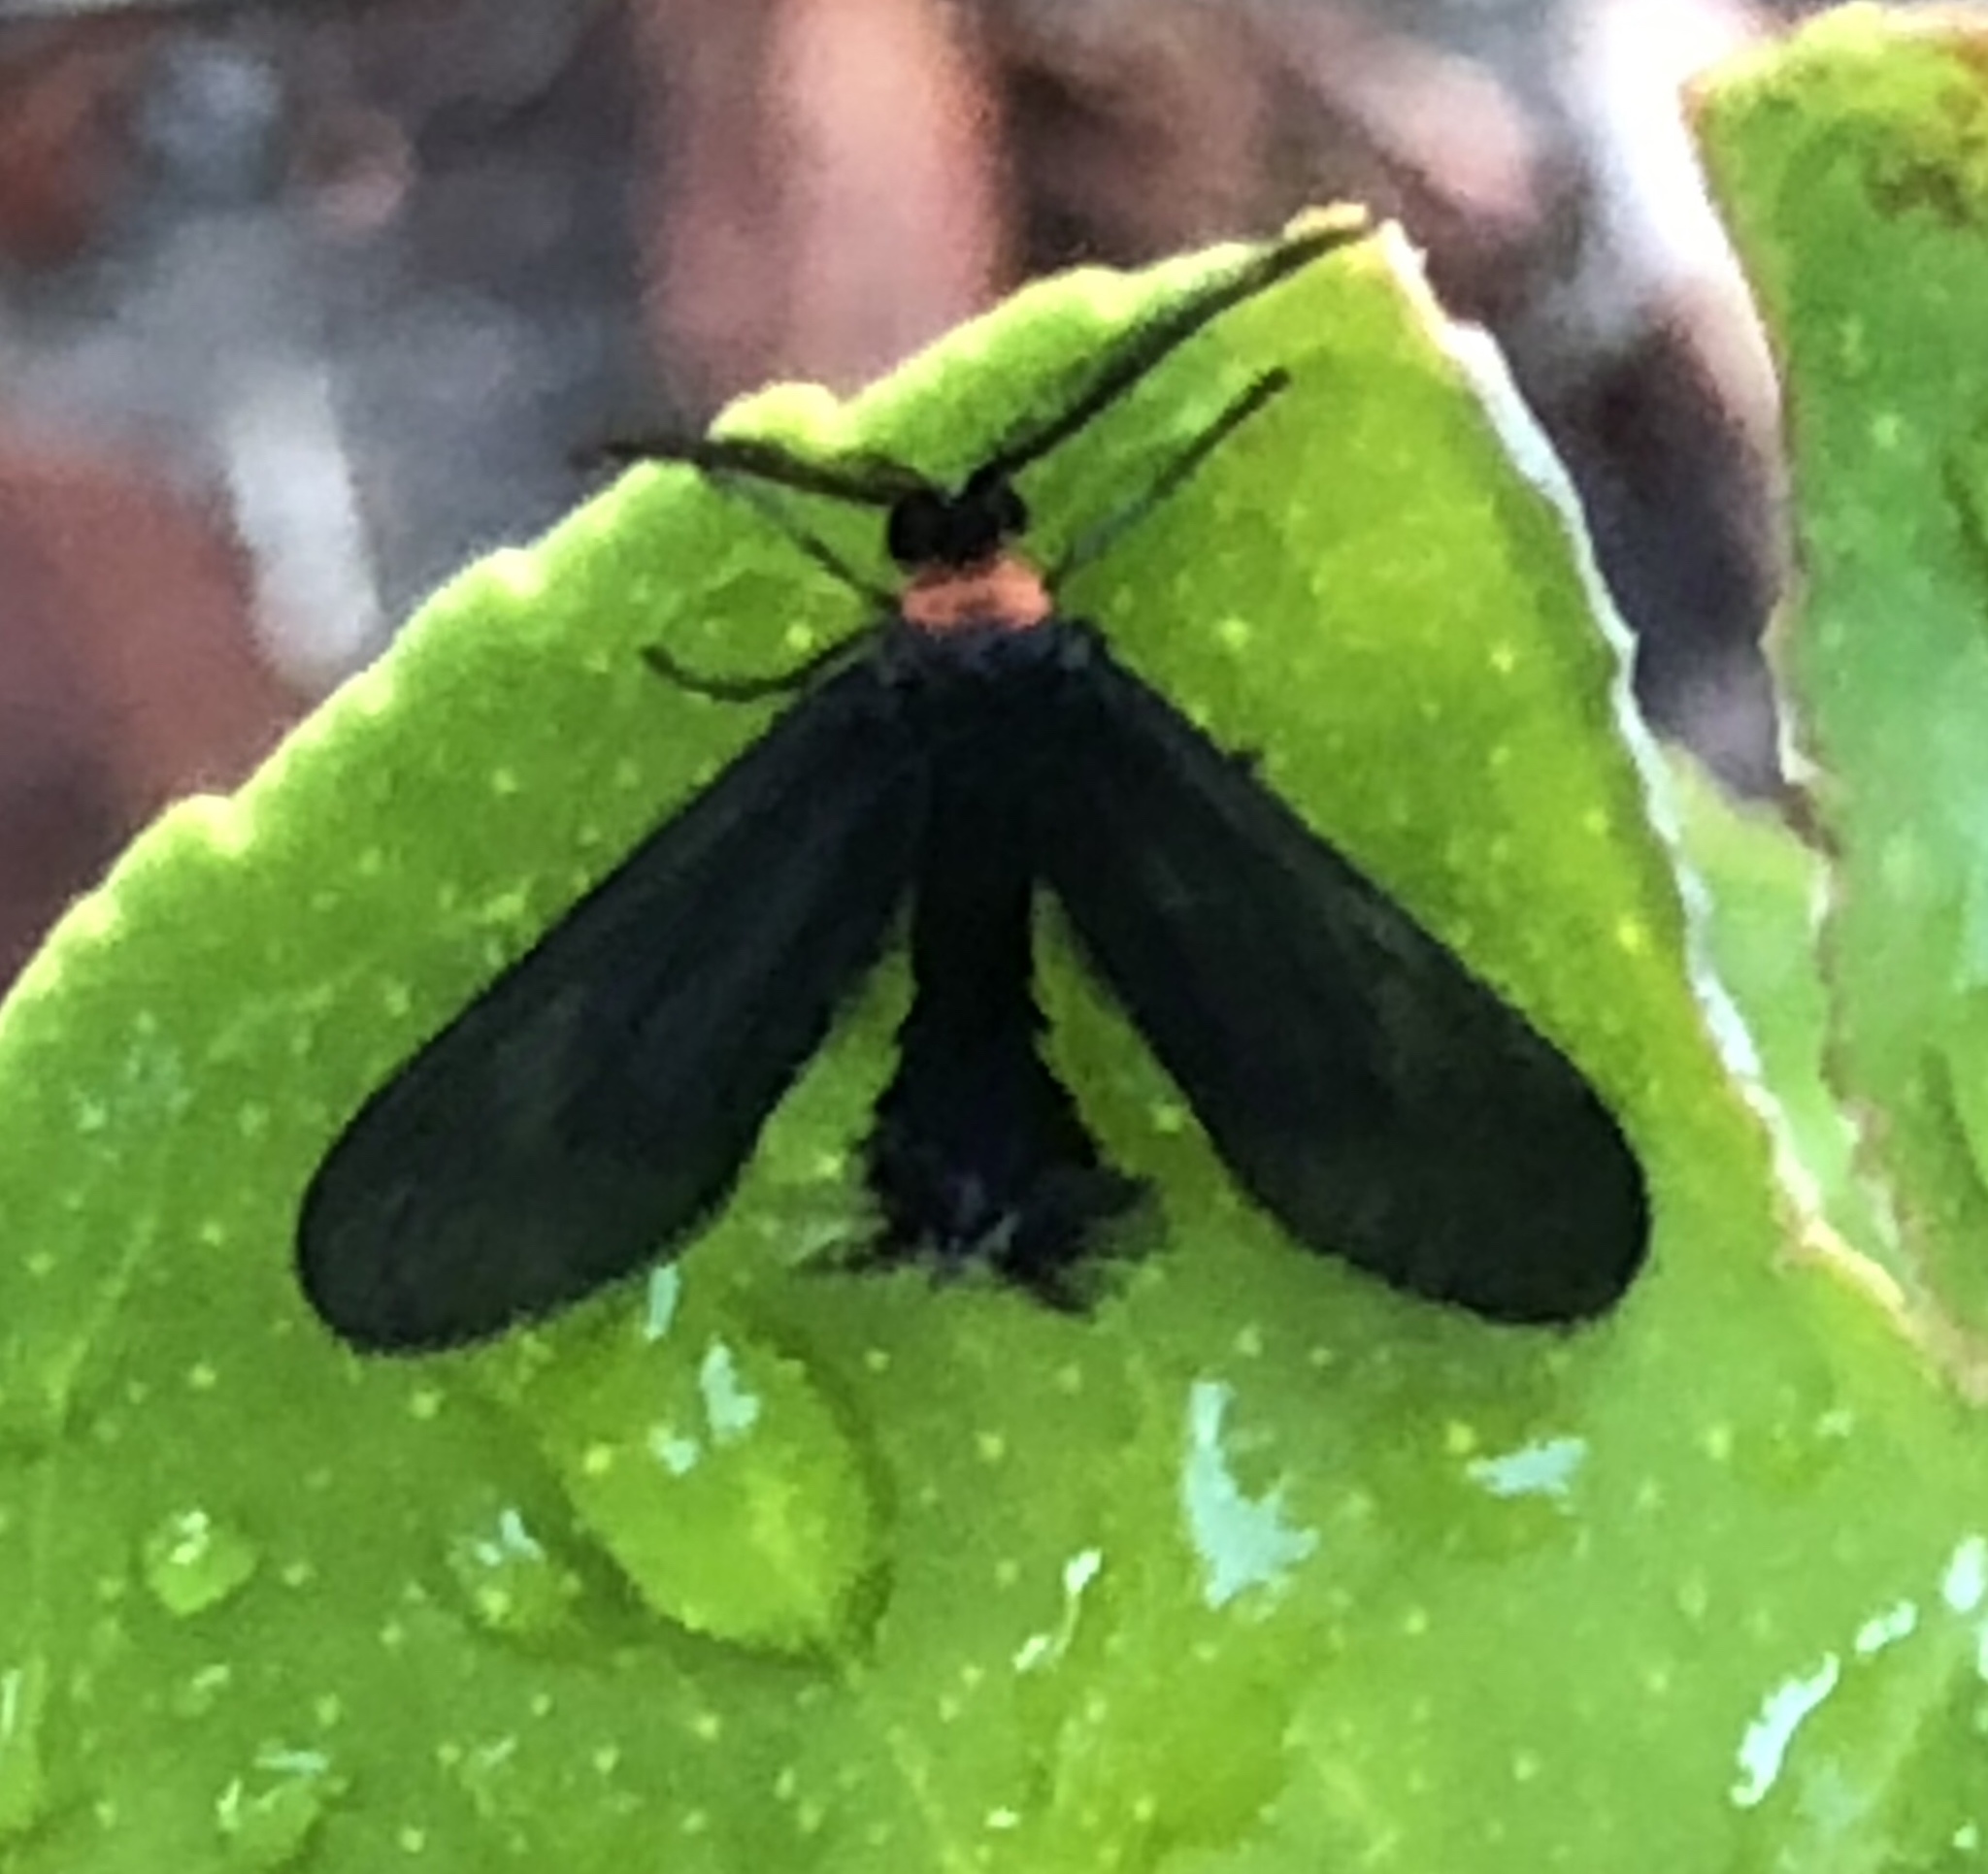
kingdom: Animalia
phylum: Arthropoda
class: Insecta
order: Lepidoptera
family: Zygaenidae
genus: Harrisina
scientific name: Harrisina americana
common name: Grapeleaf skeletonizer moth
